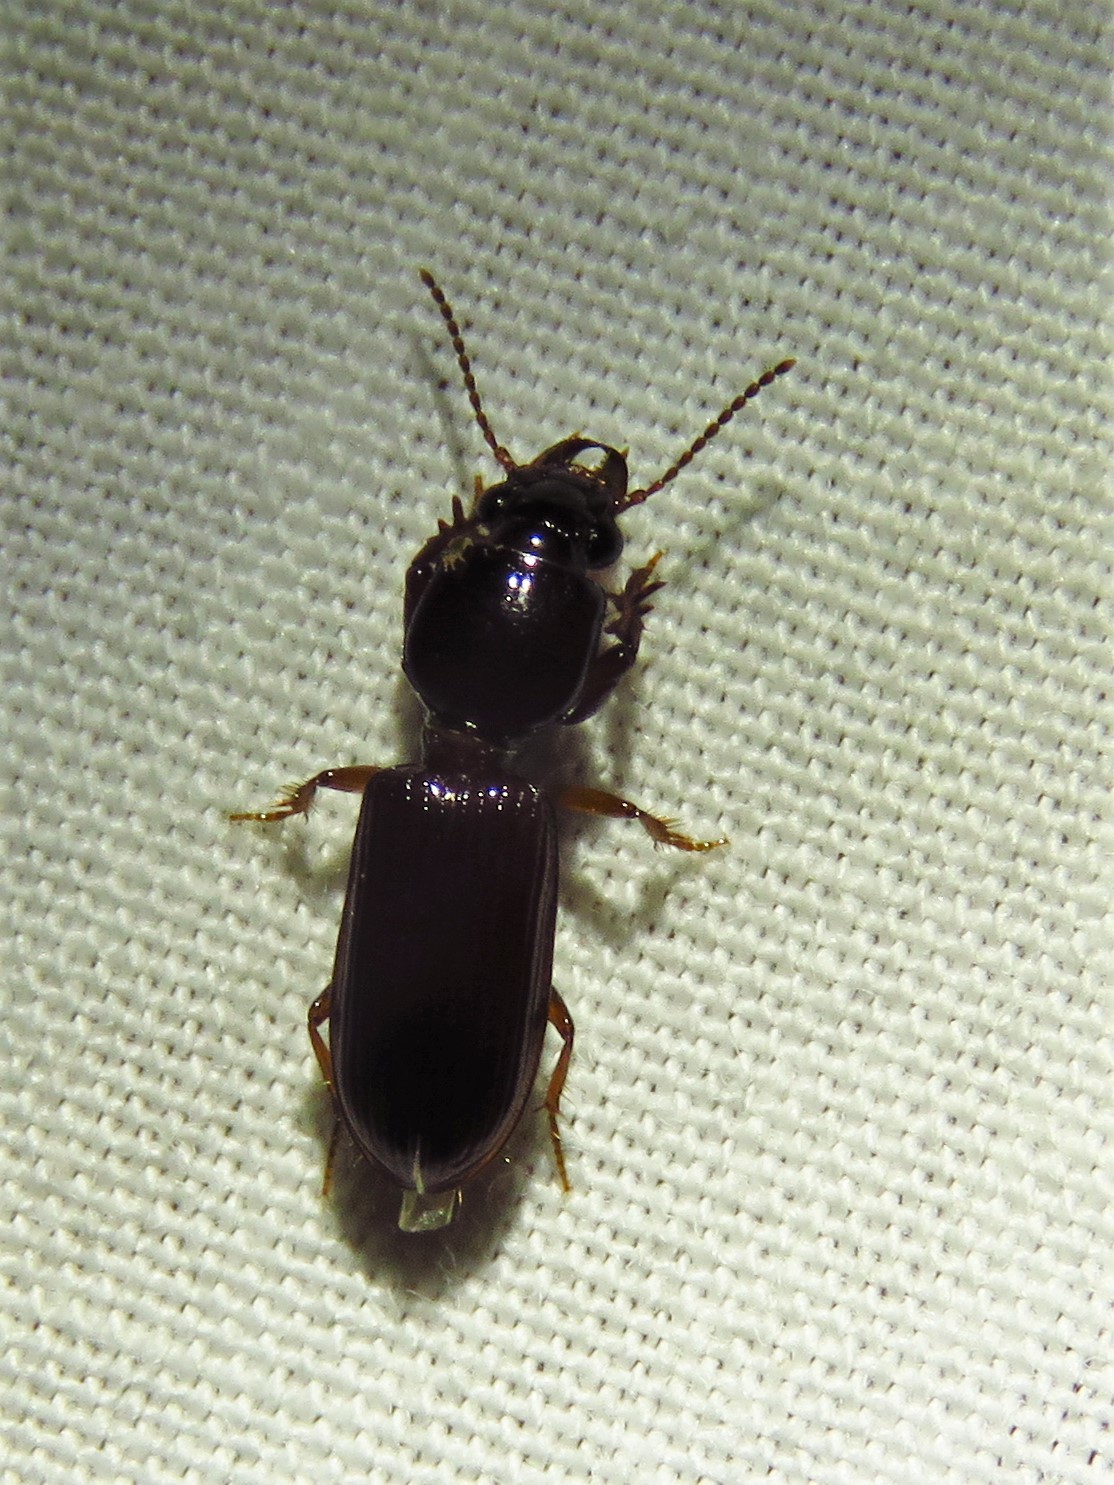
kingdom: Animalia
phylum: Arthropoda
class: Insecta
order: Coleoptera
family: Carabidae
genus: Semiclivina
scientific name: Semiclivina dentipes
